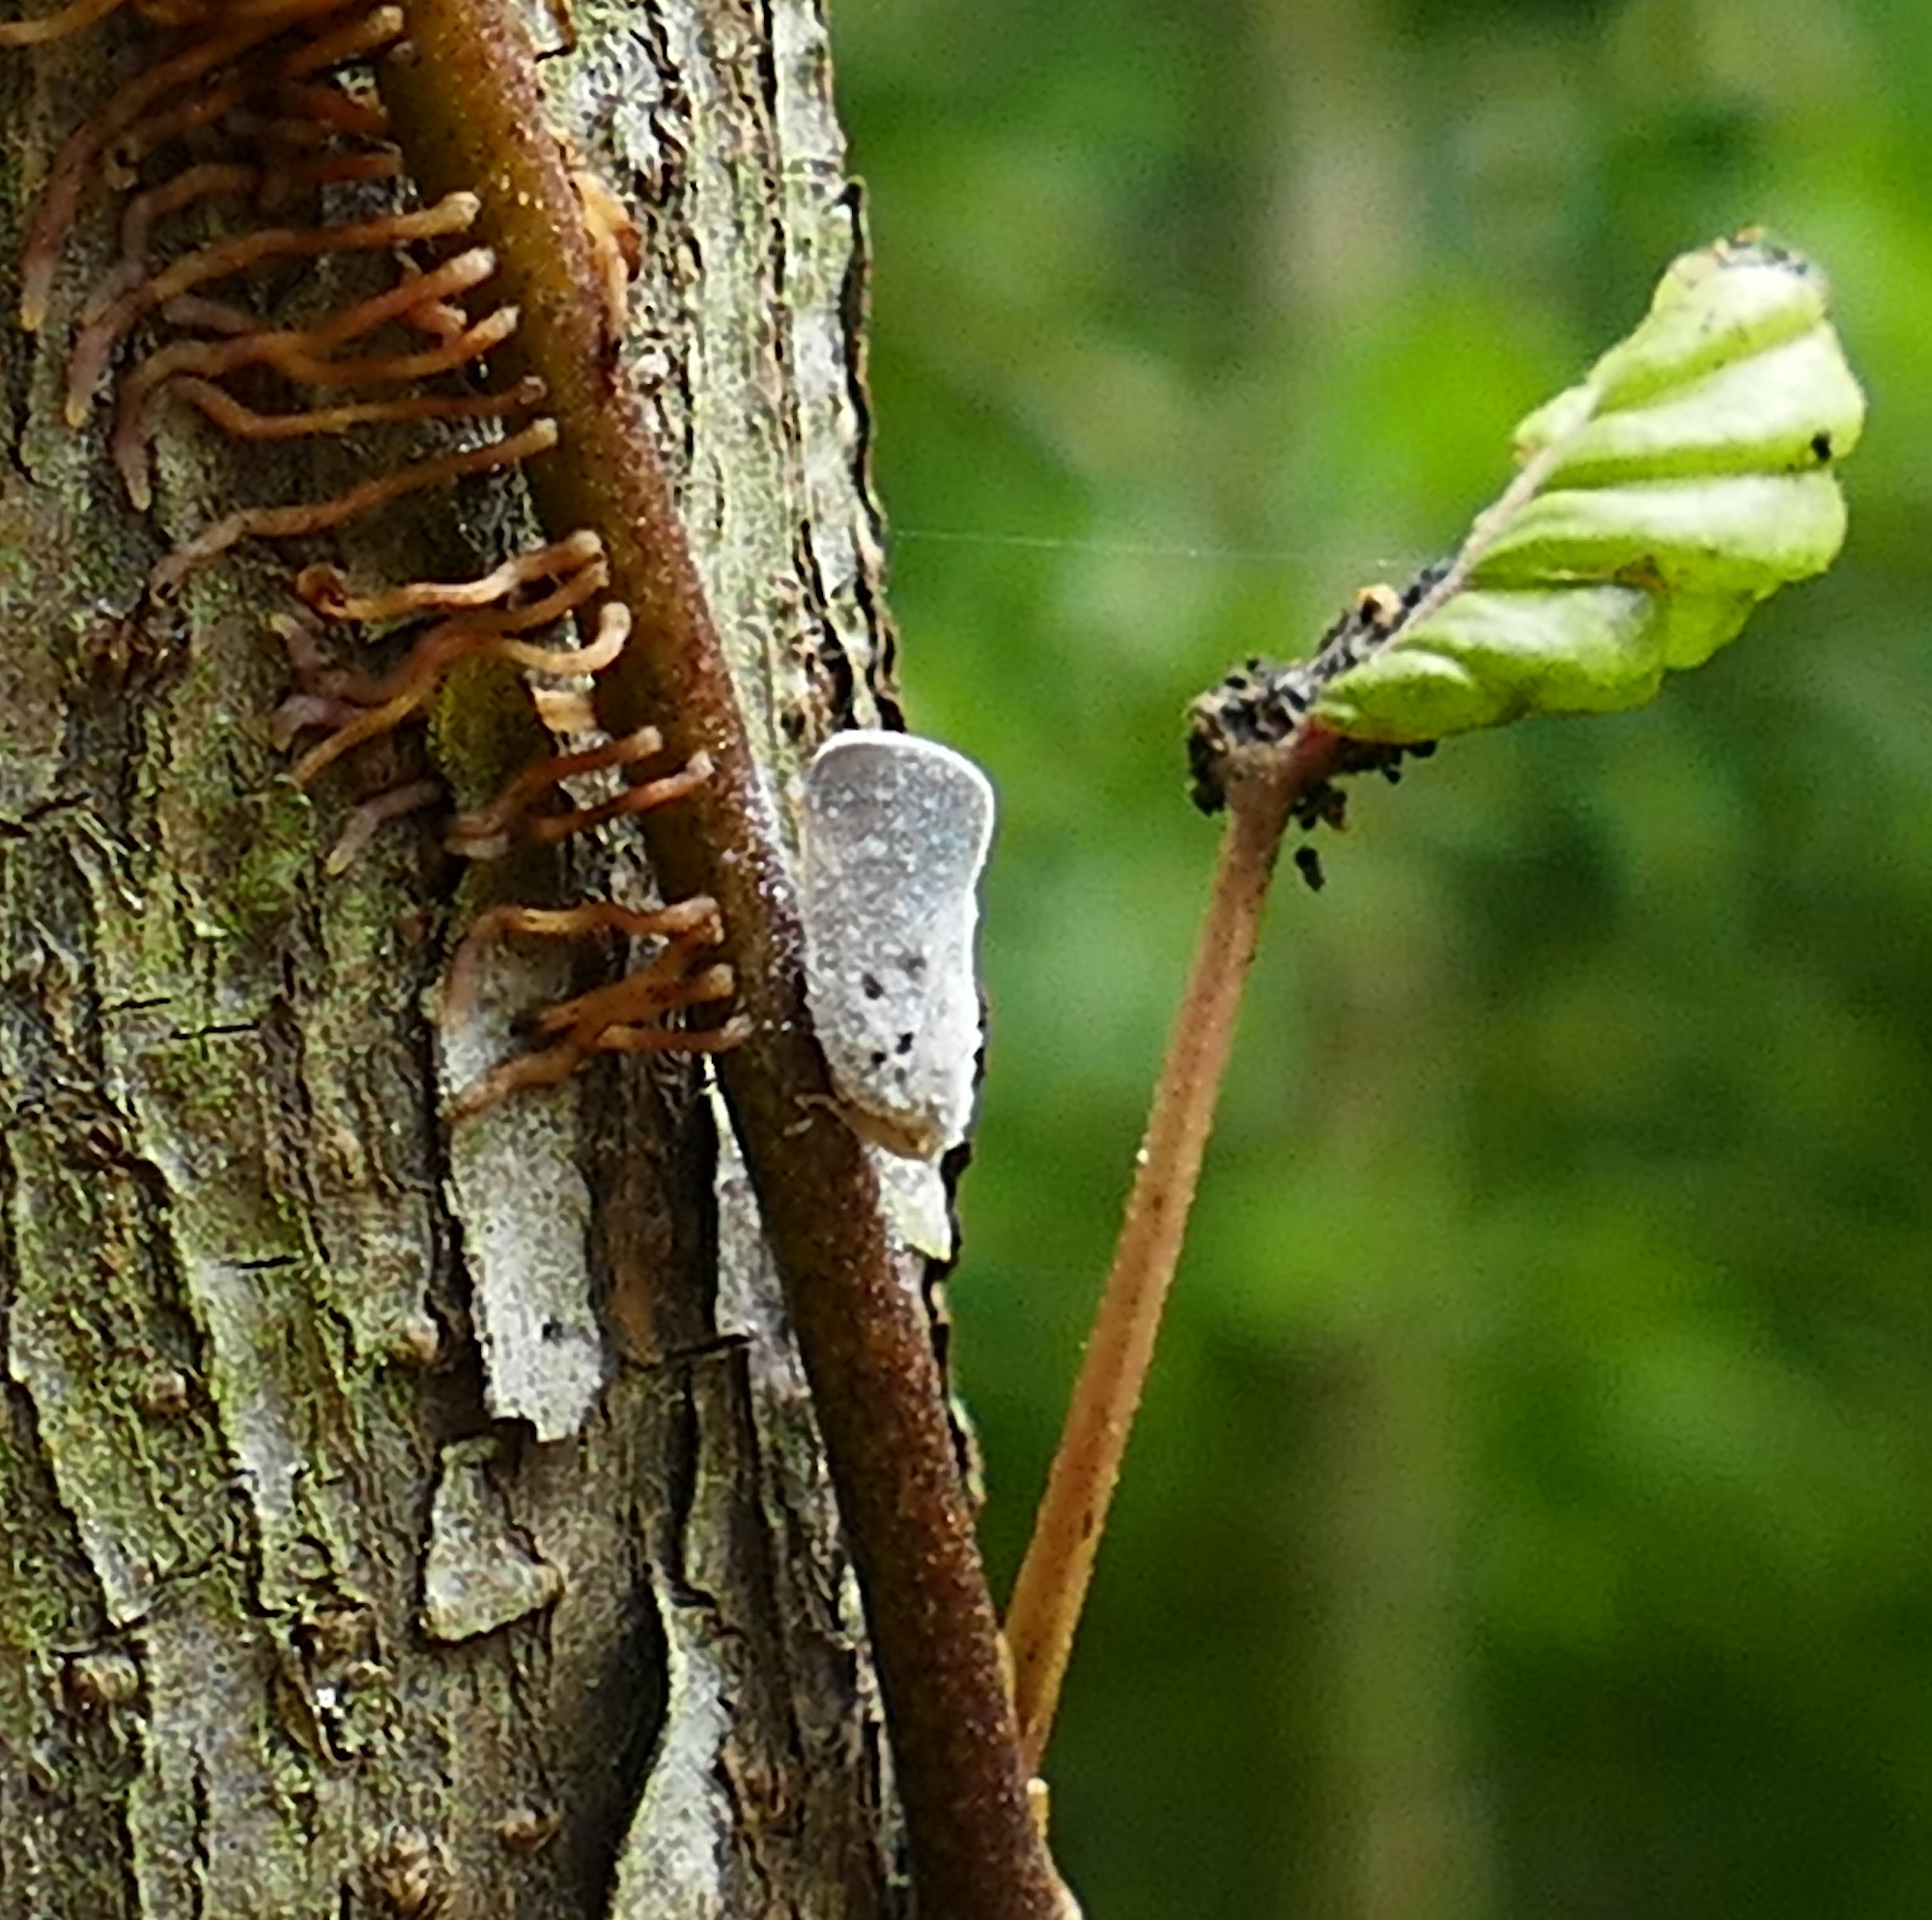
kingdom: Animalia
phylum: Arthropoda
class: Insecta
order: Hemiptera
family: Flatidae
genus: Metcalfa
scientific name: Metcalfa pruinosa
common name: Citrus flatid planthopper
